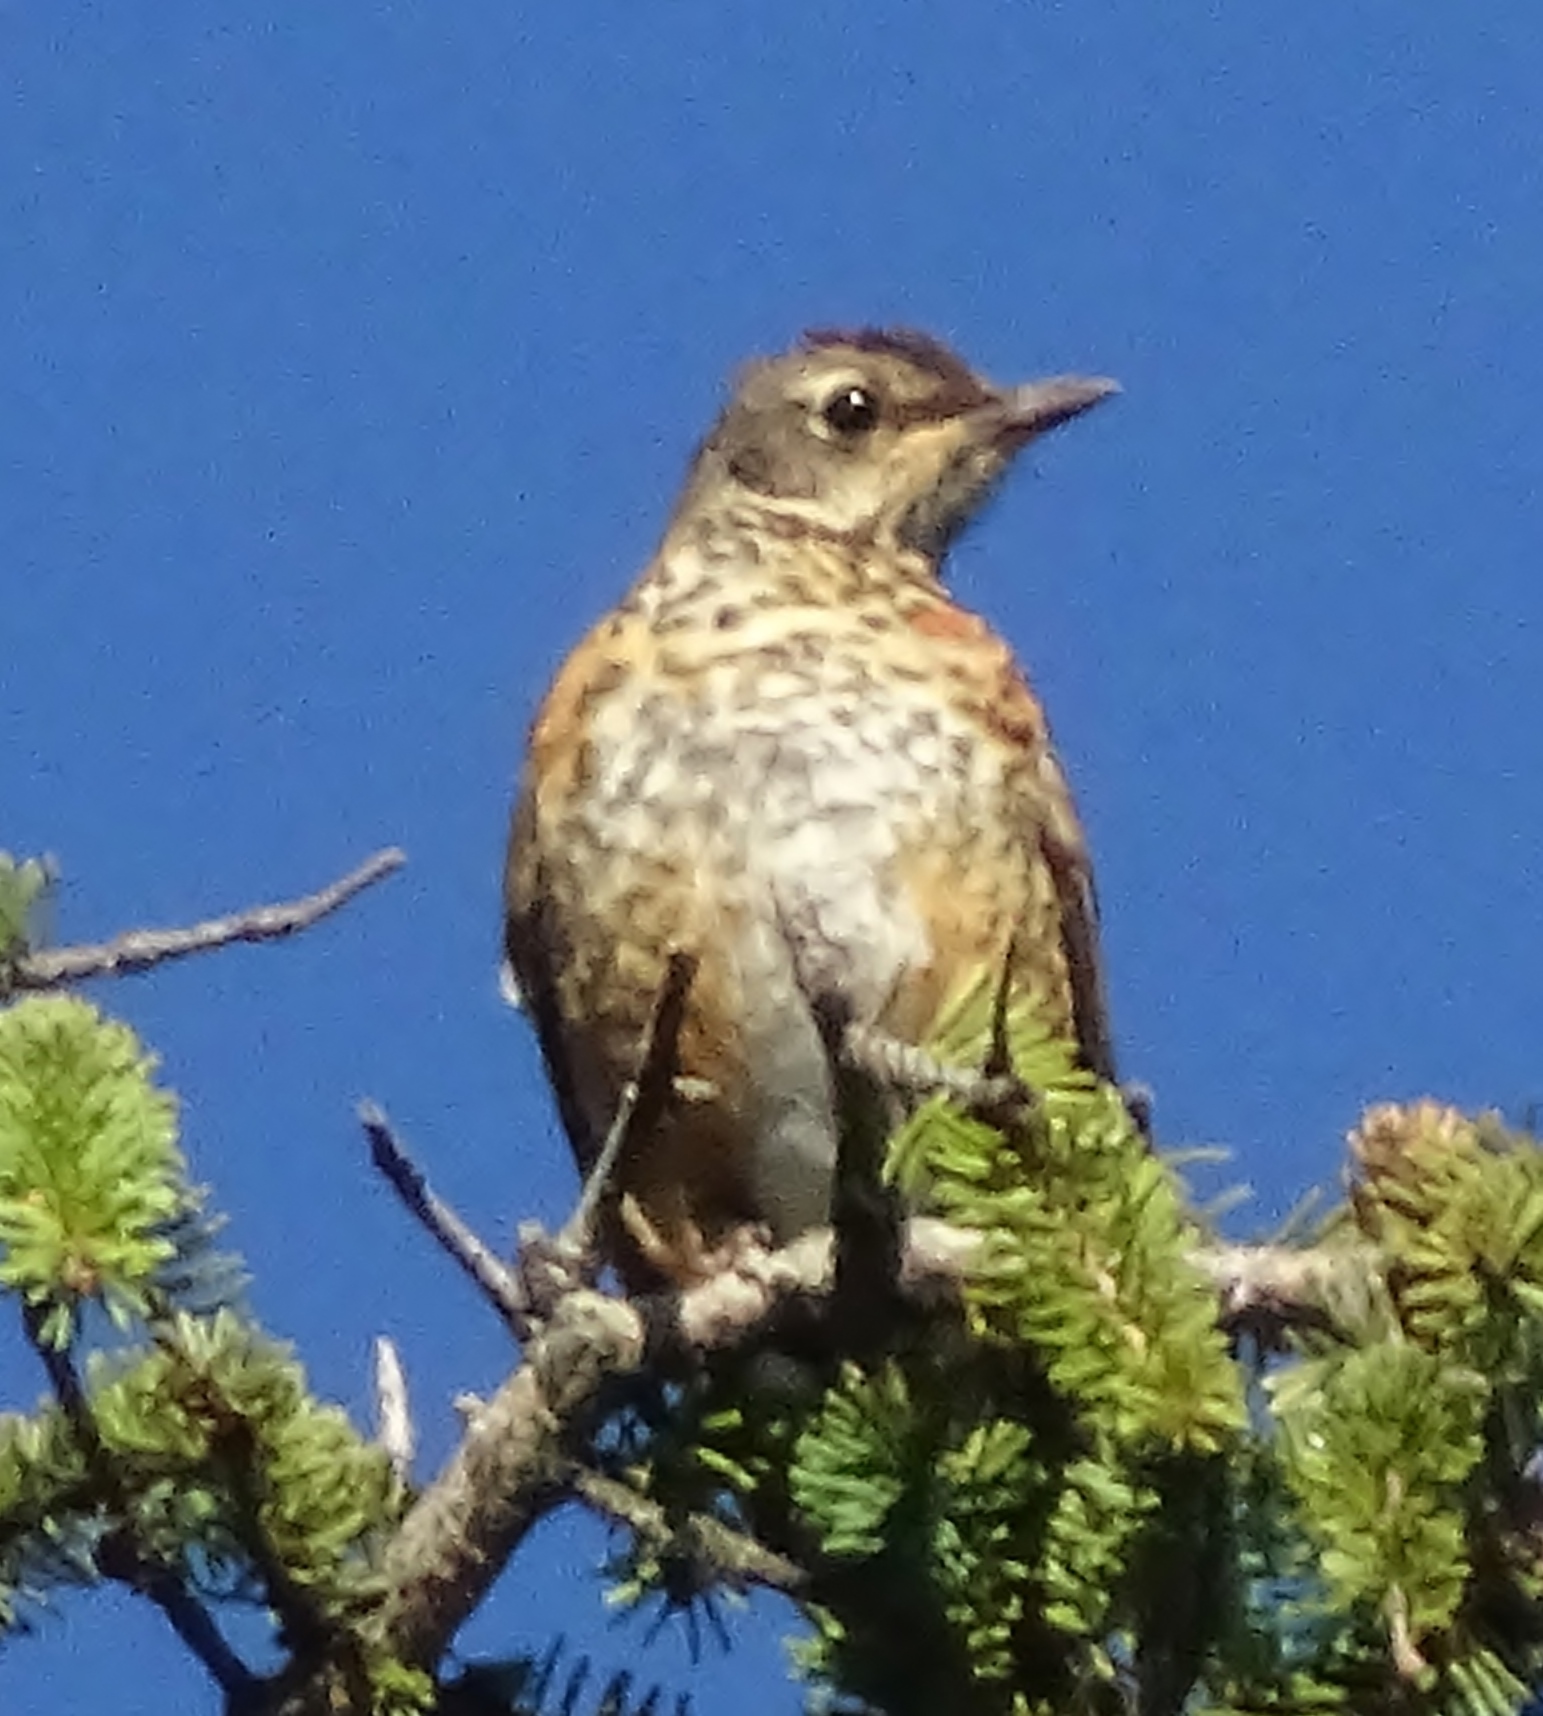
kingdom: Animalia
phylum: Chordata
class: Aves
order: Passeriformes
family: Turdidae
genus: Turdus
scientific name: Turdus migratorius
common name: American robin
